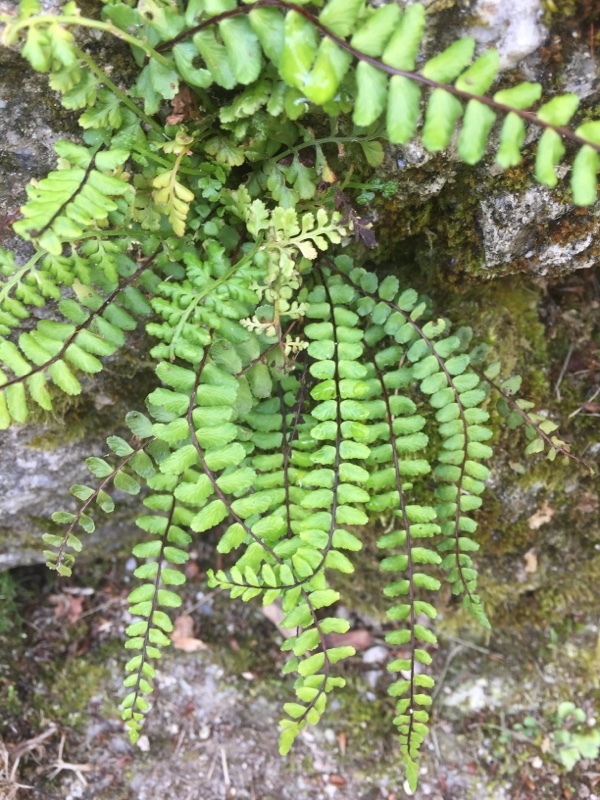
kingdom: Plantae
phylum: Tracheophyta
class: Polypodiopsida
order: Polypodiales
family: Aspleniaceae
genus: Asplenium
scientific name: Asplenium trichomanes
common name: Maidenhair spleenwort
